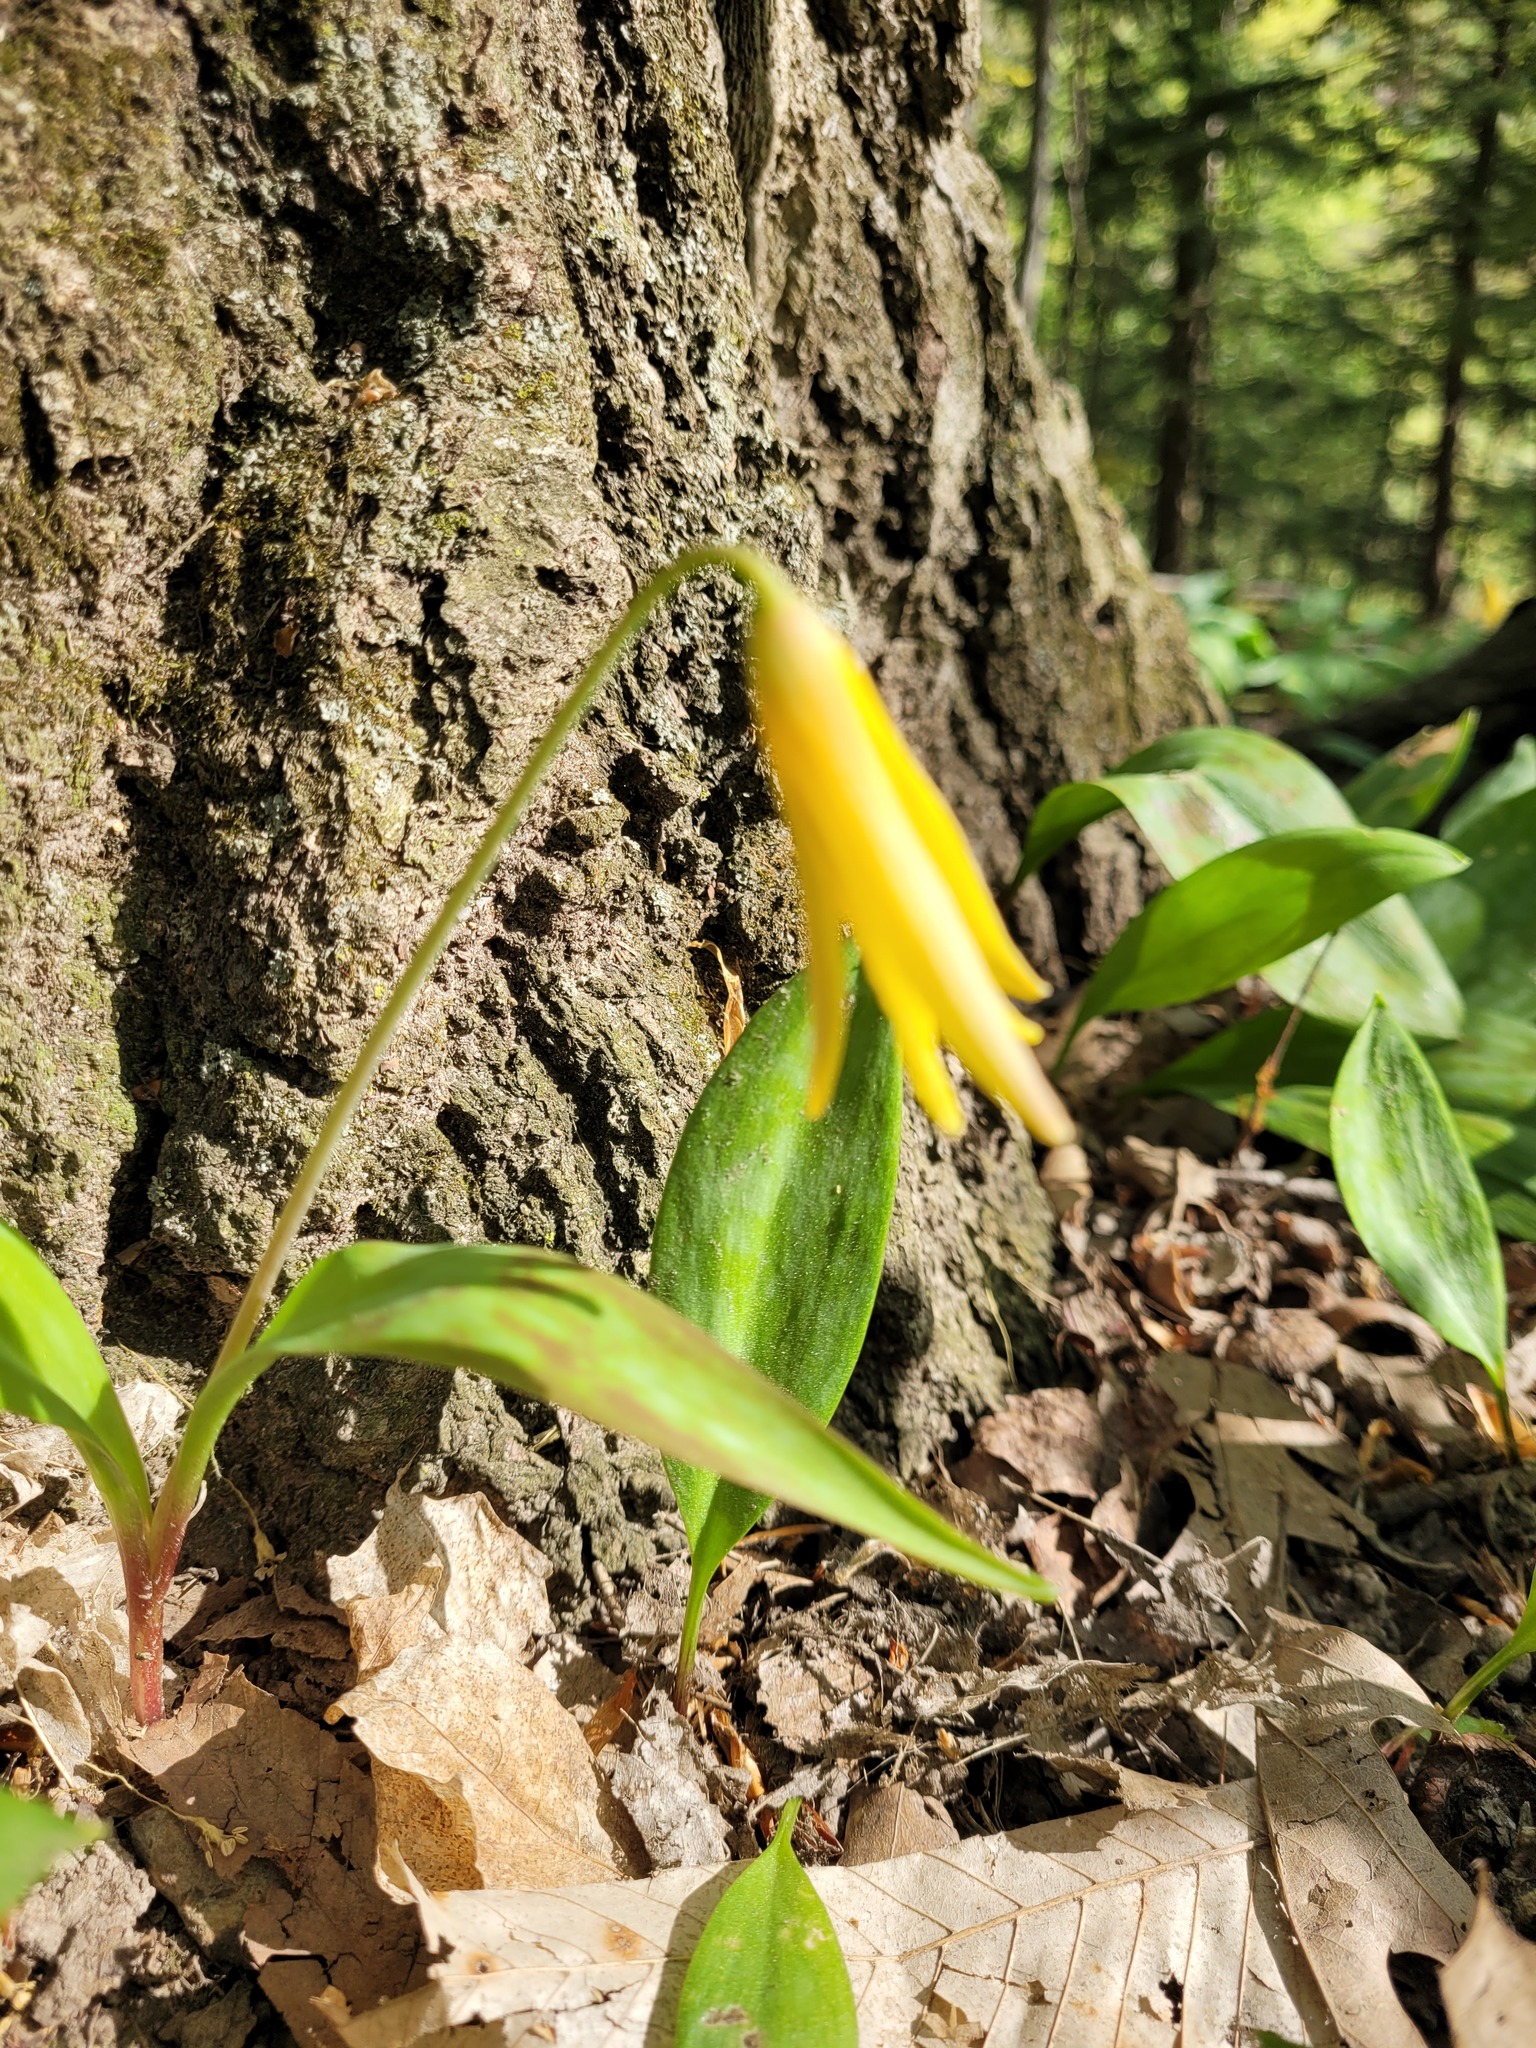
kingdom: Plantae
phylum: Tracheophyta
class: Liliopsida
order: Liliales
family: Liliaceae
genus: Erythronium
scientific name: Erythronium americanum
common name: Yellow adder's-tongue
